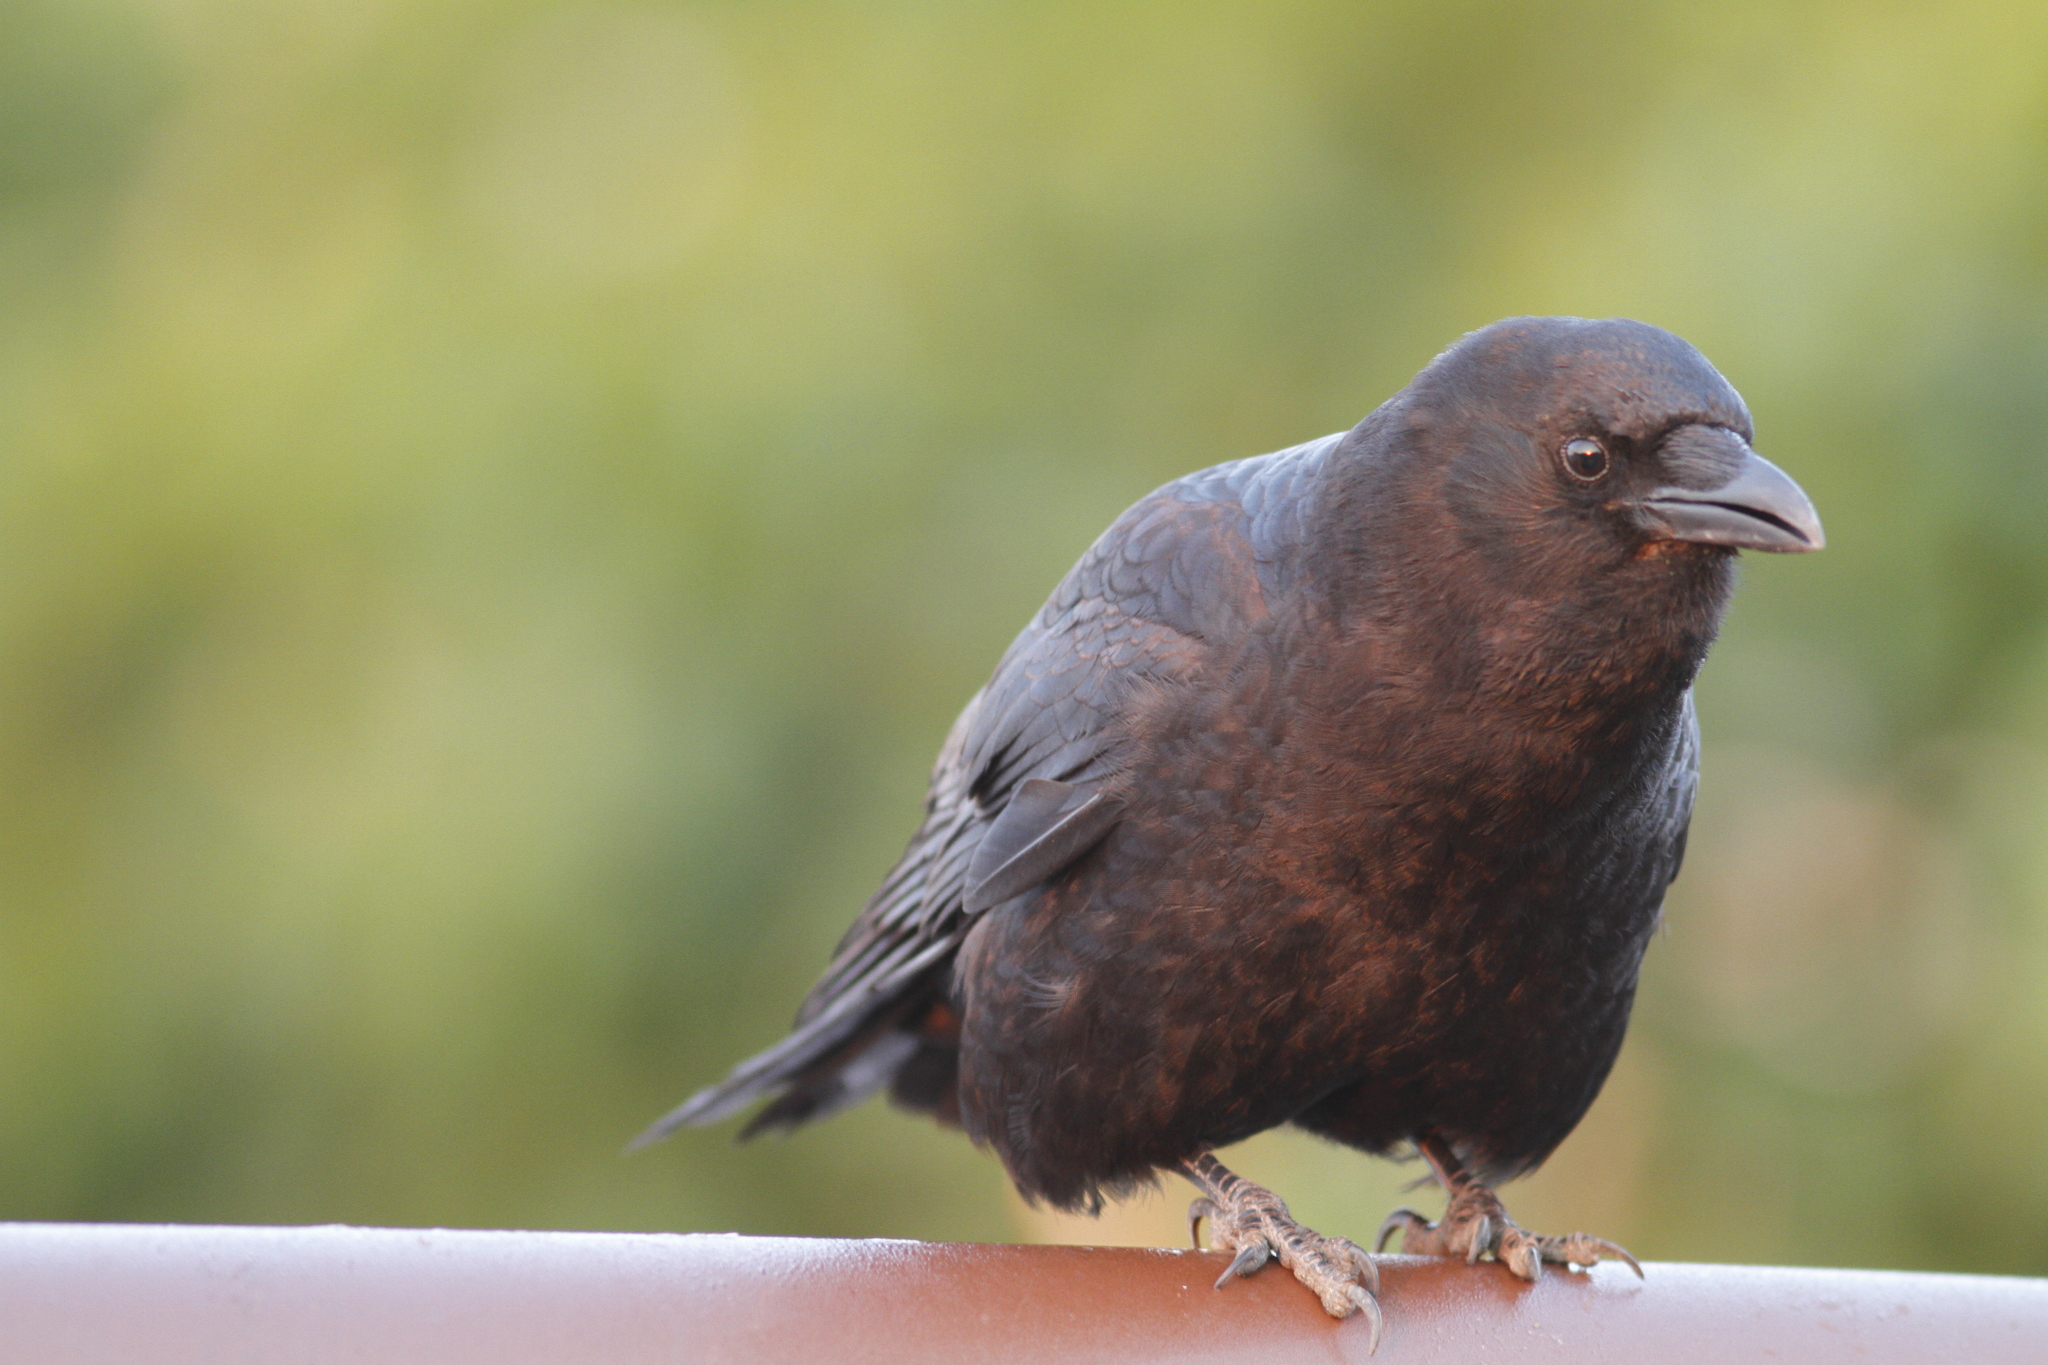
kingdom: Animalia
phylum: Chordata
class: Aves
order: Passeriformes
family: Corvidae
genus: Corvus
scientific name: Corvus brachyrhynchos
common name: American crow
